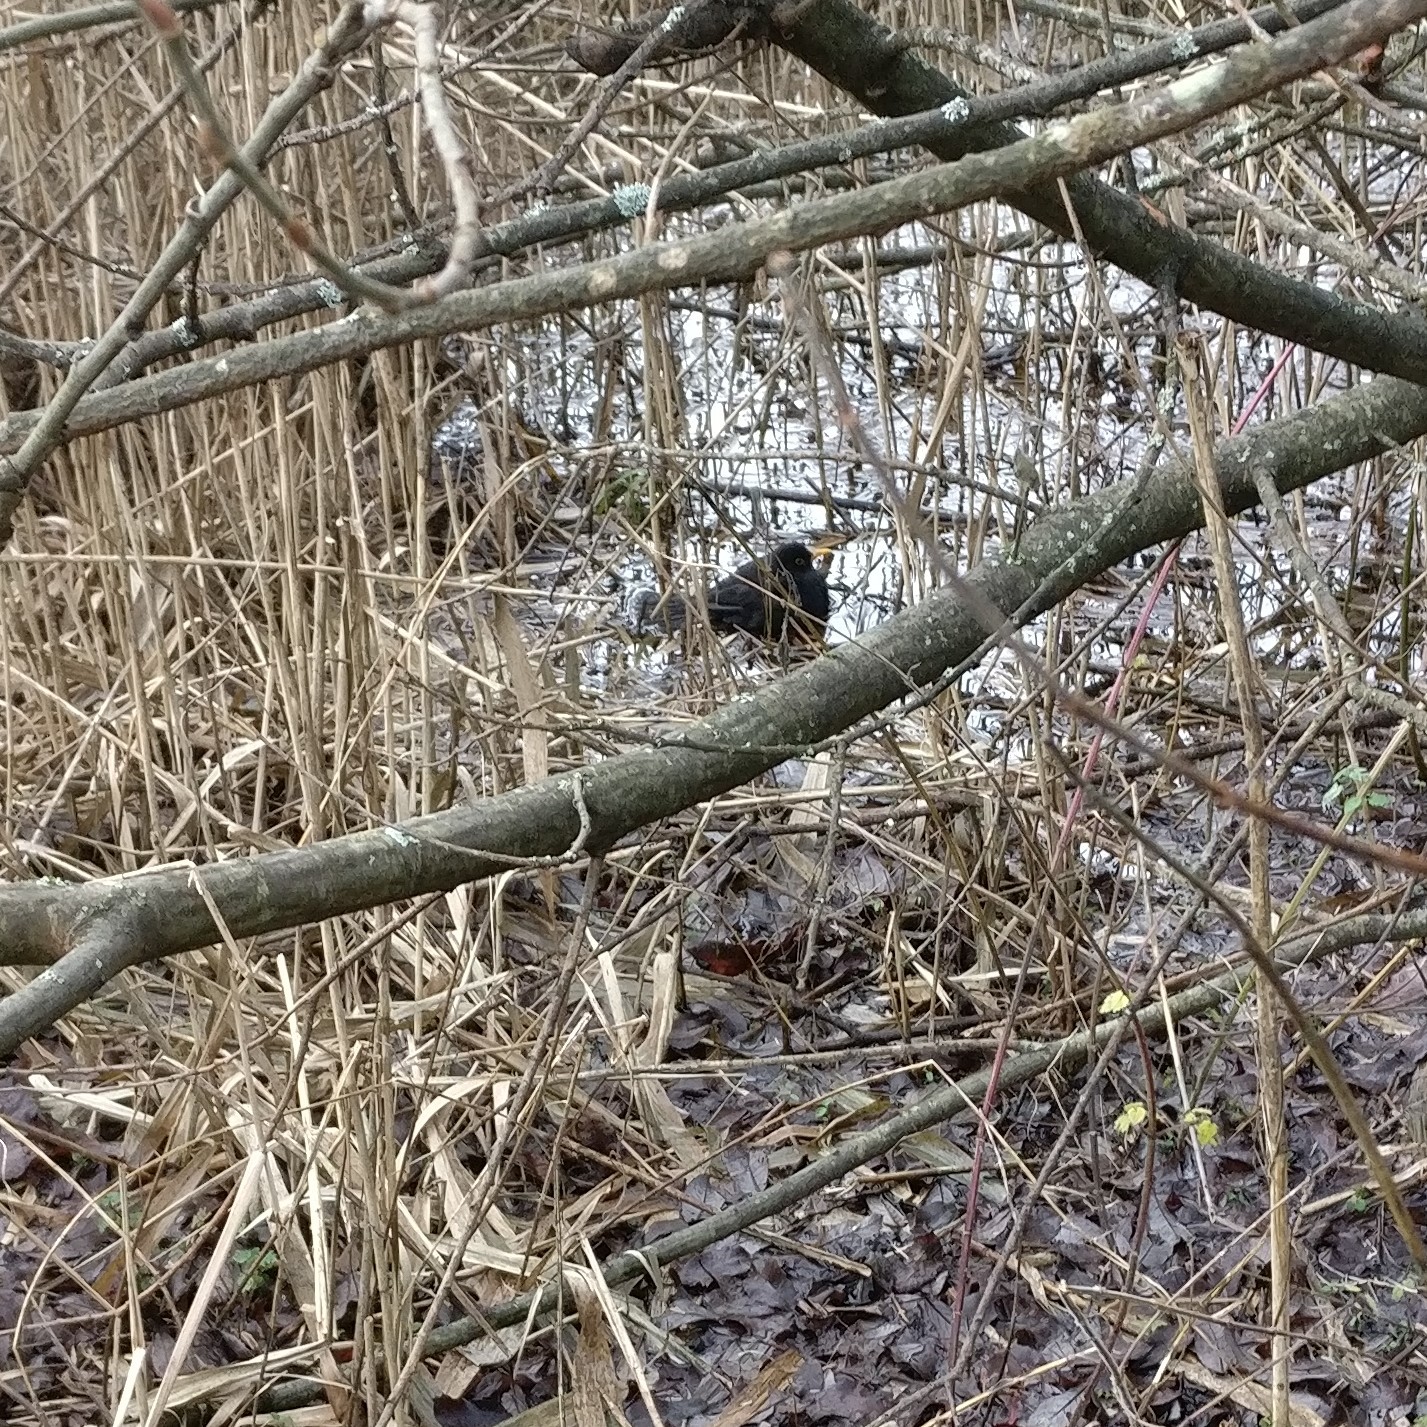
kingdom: Animalia
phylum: Chordata
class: Aves
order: Passeriformes
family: Turdidae
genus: Turdus
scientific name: Turdus merula
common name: Common blackbird
